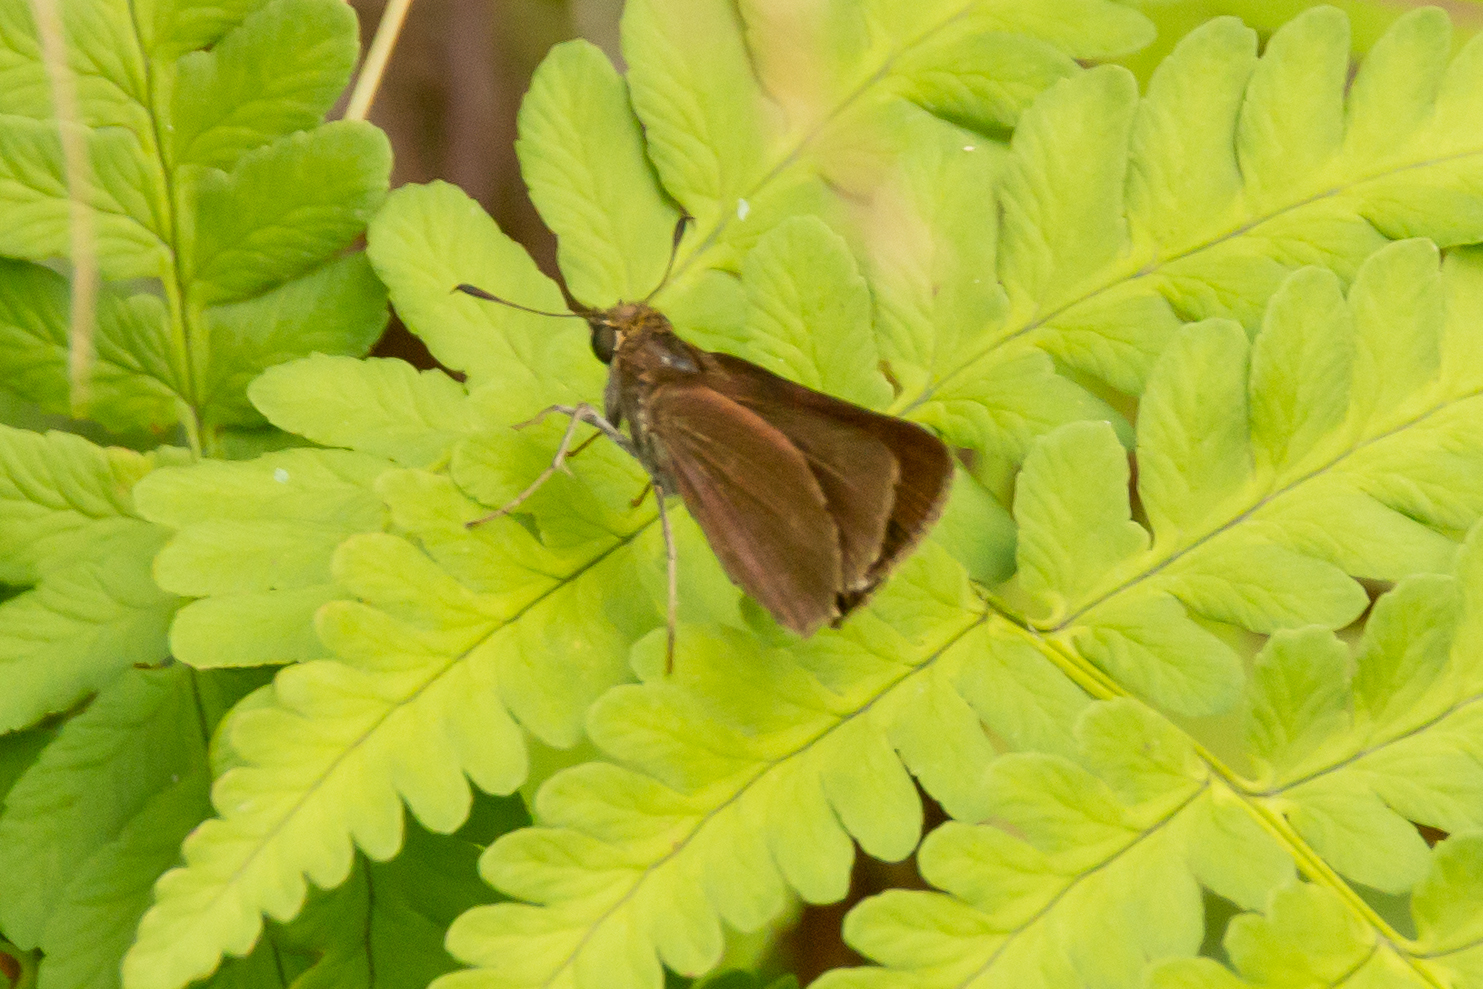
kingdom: Animalia
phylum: Arthropoda
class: Insecta
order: Lepidoptera
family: Hesperiidae
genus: Euphyes
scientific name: Euphyes vestris
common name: Dun skipper
